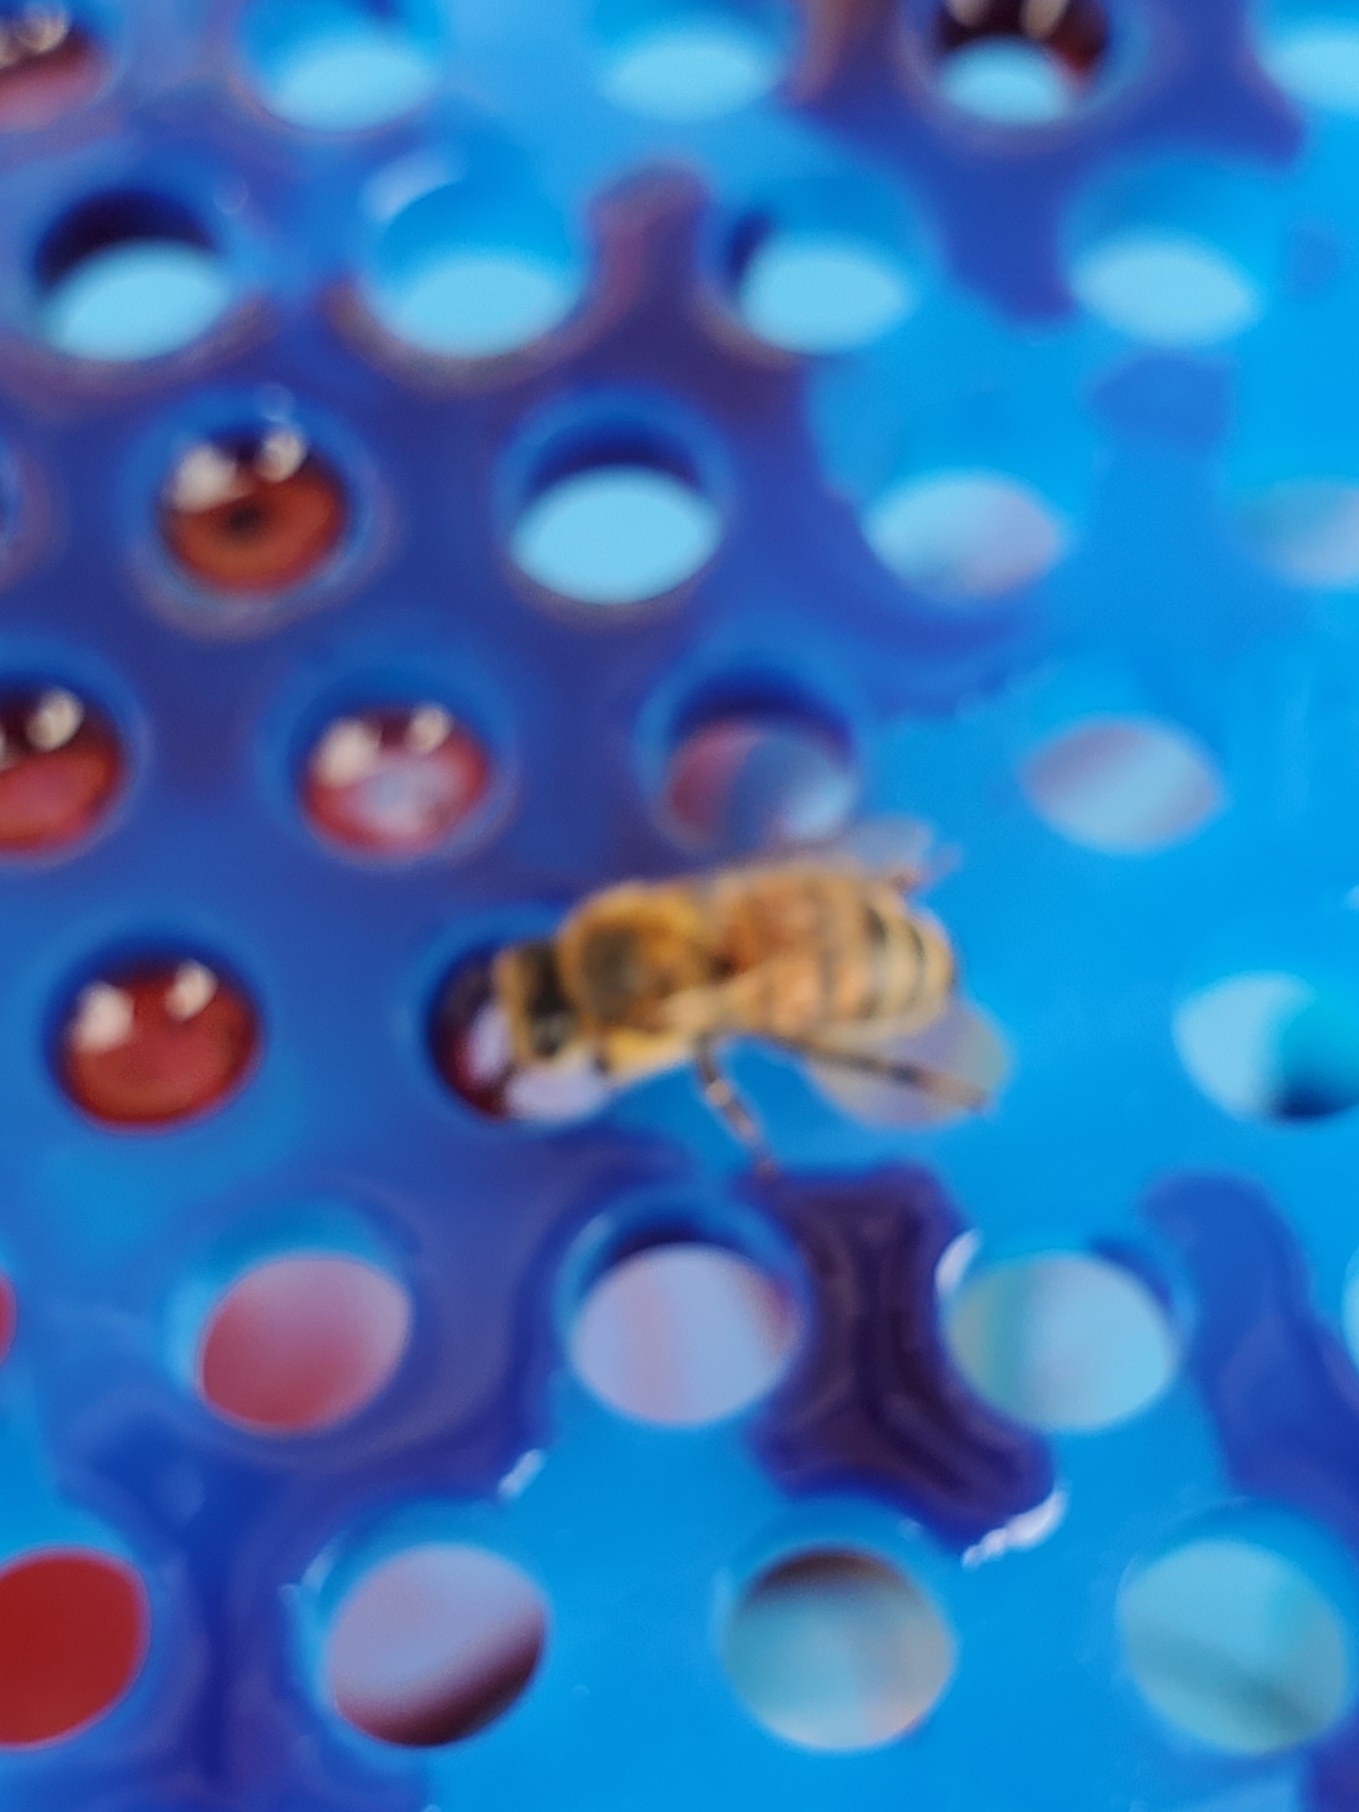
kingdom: Animalia
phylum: Arthropoda
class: Insecta
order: Hymenoptera
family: Apidae
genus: Apis
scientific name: Apis mellifera
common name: Honey bee
